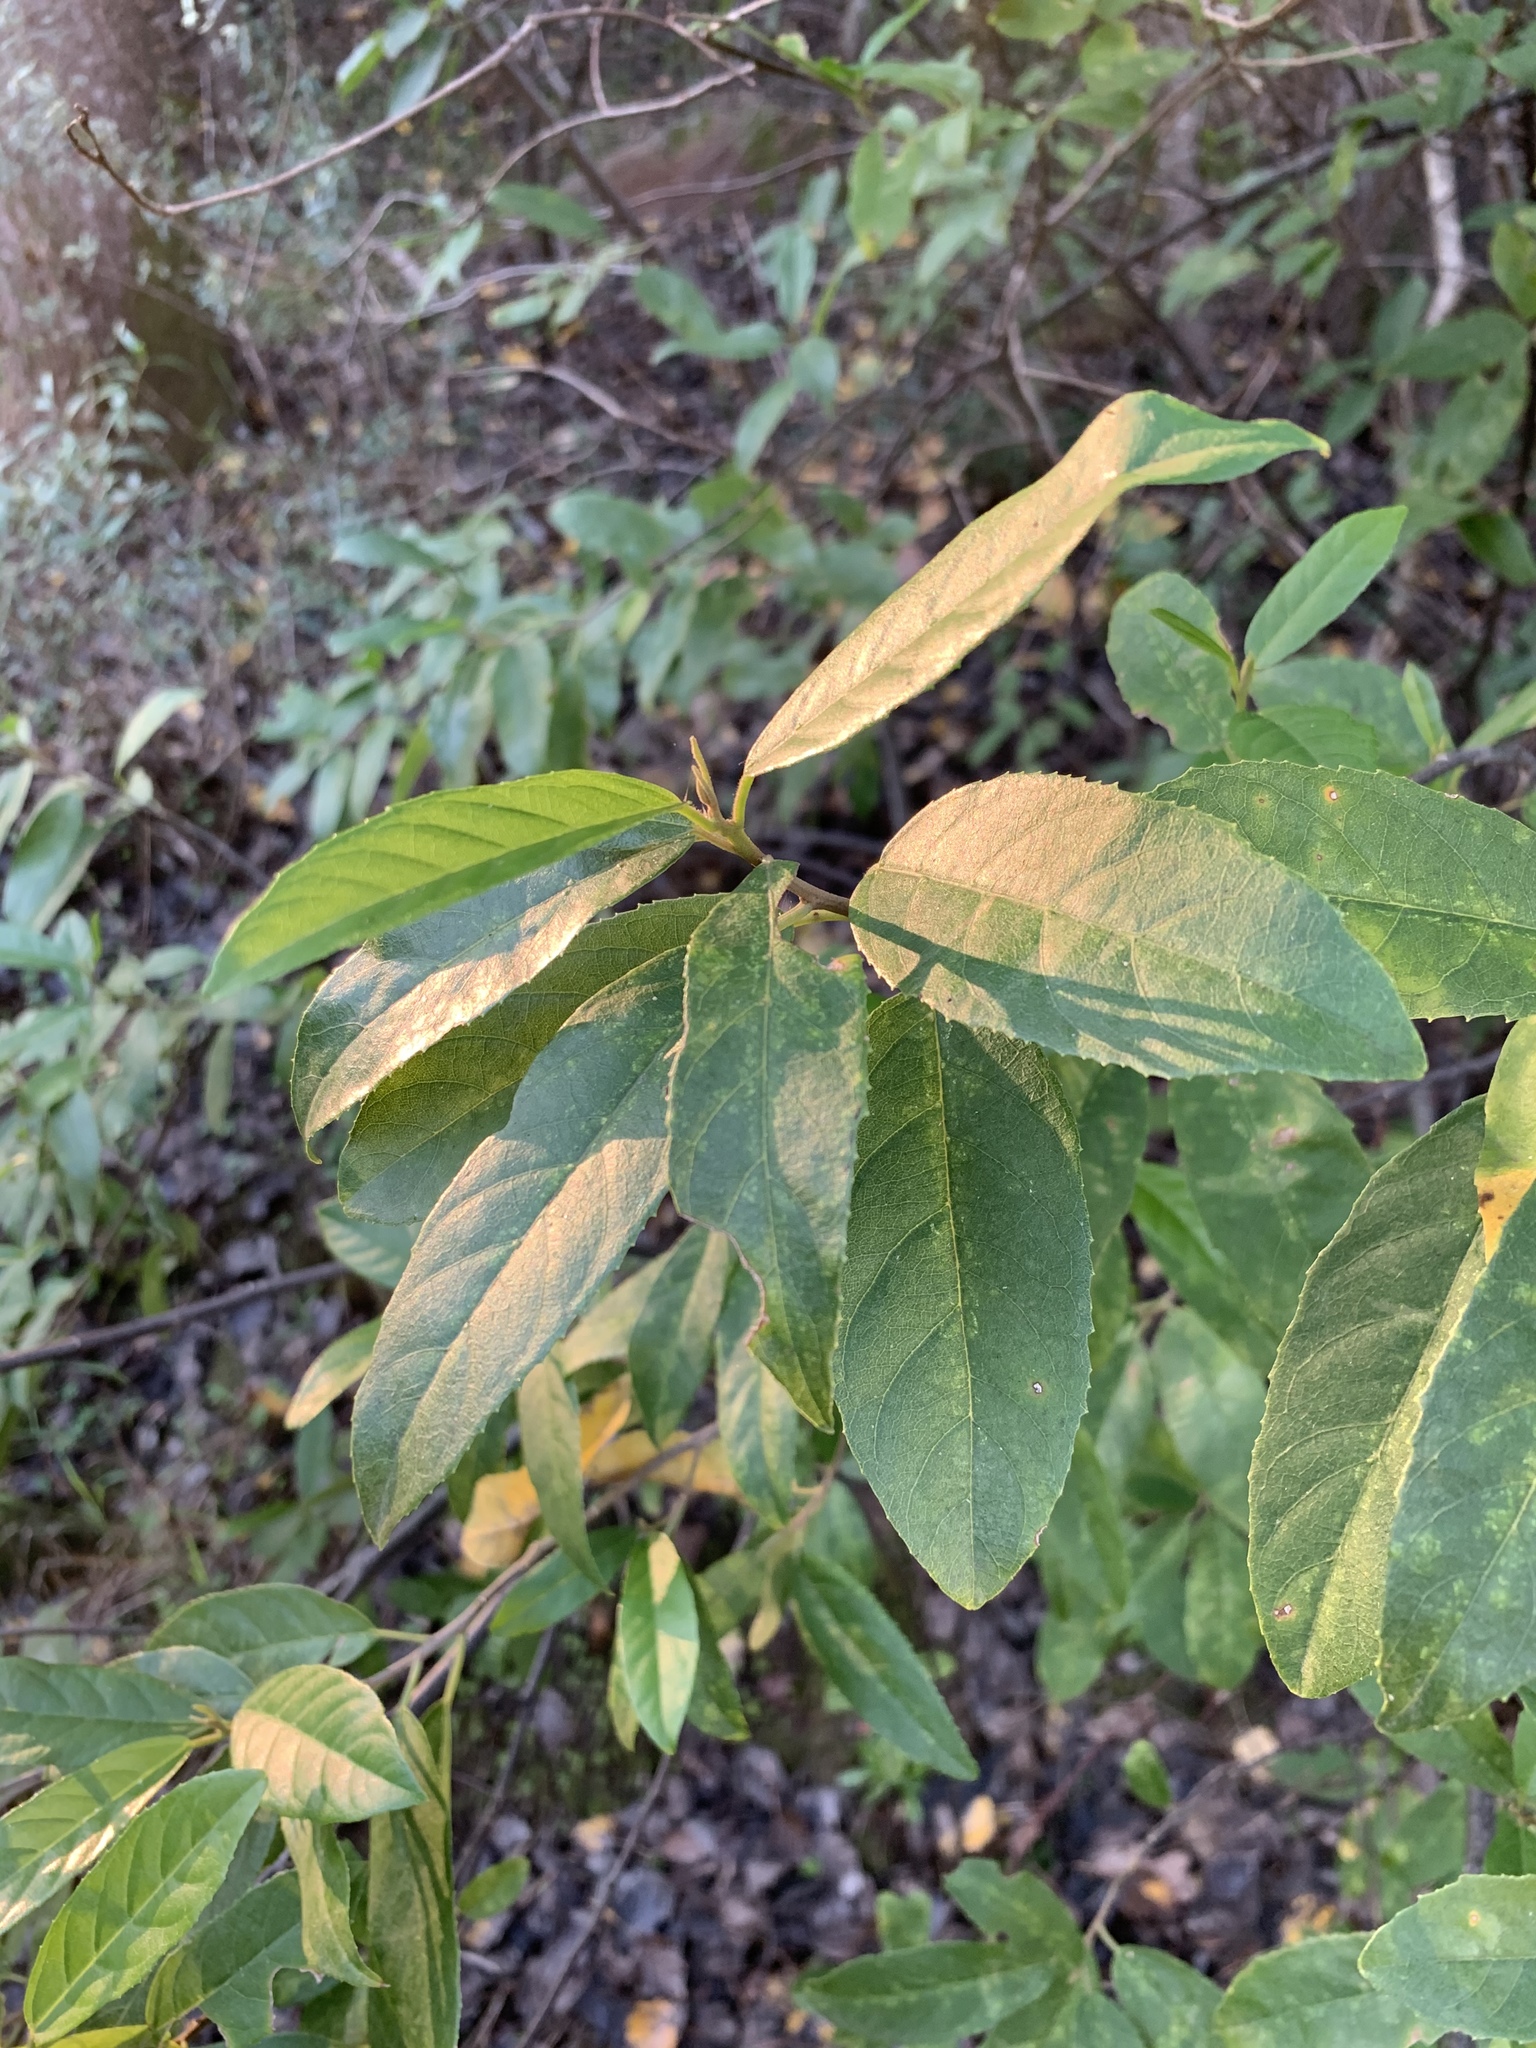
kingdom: Plantae
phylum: Tracheophyta
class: Magnoliopsida
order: Malpighiales
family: Achariaceae
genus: Kiggelaria
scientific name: Kiggelaria africana
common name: Wild peach
